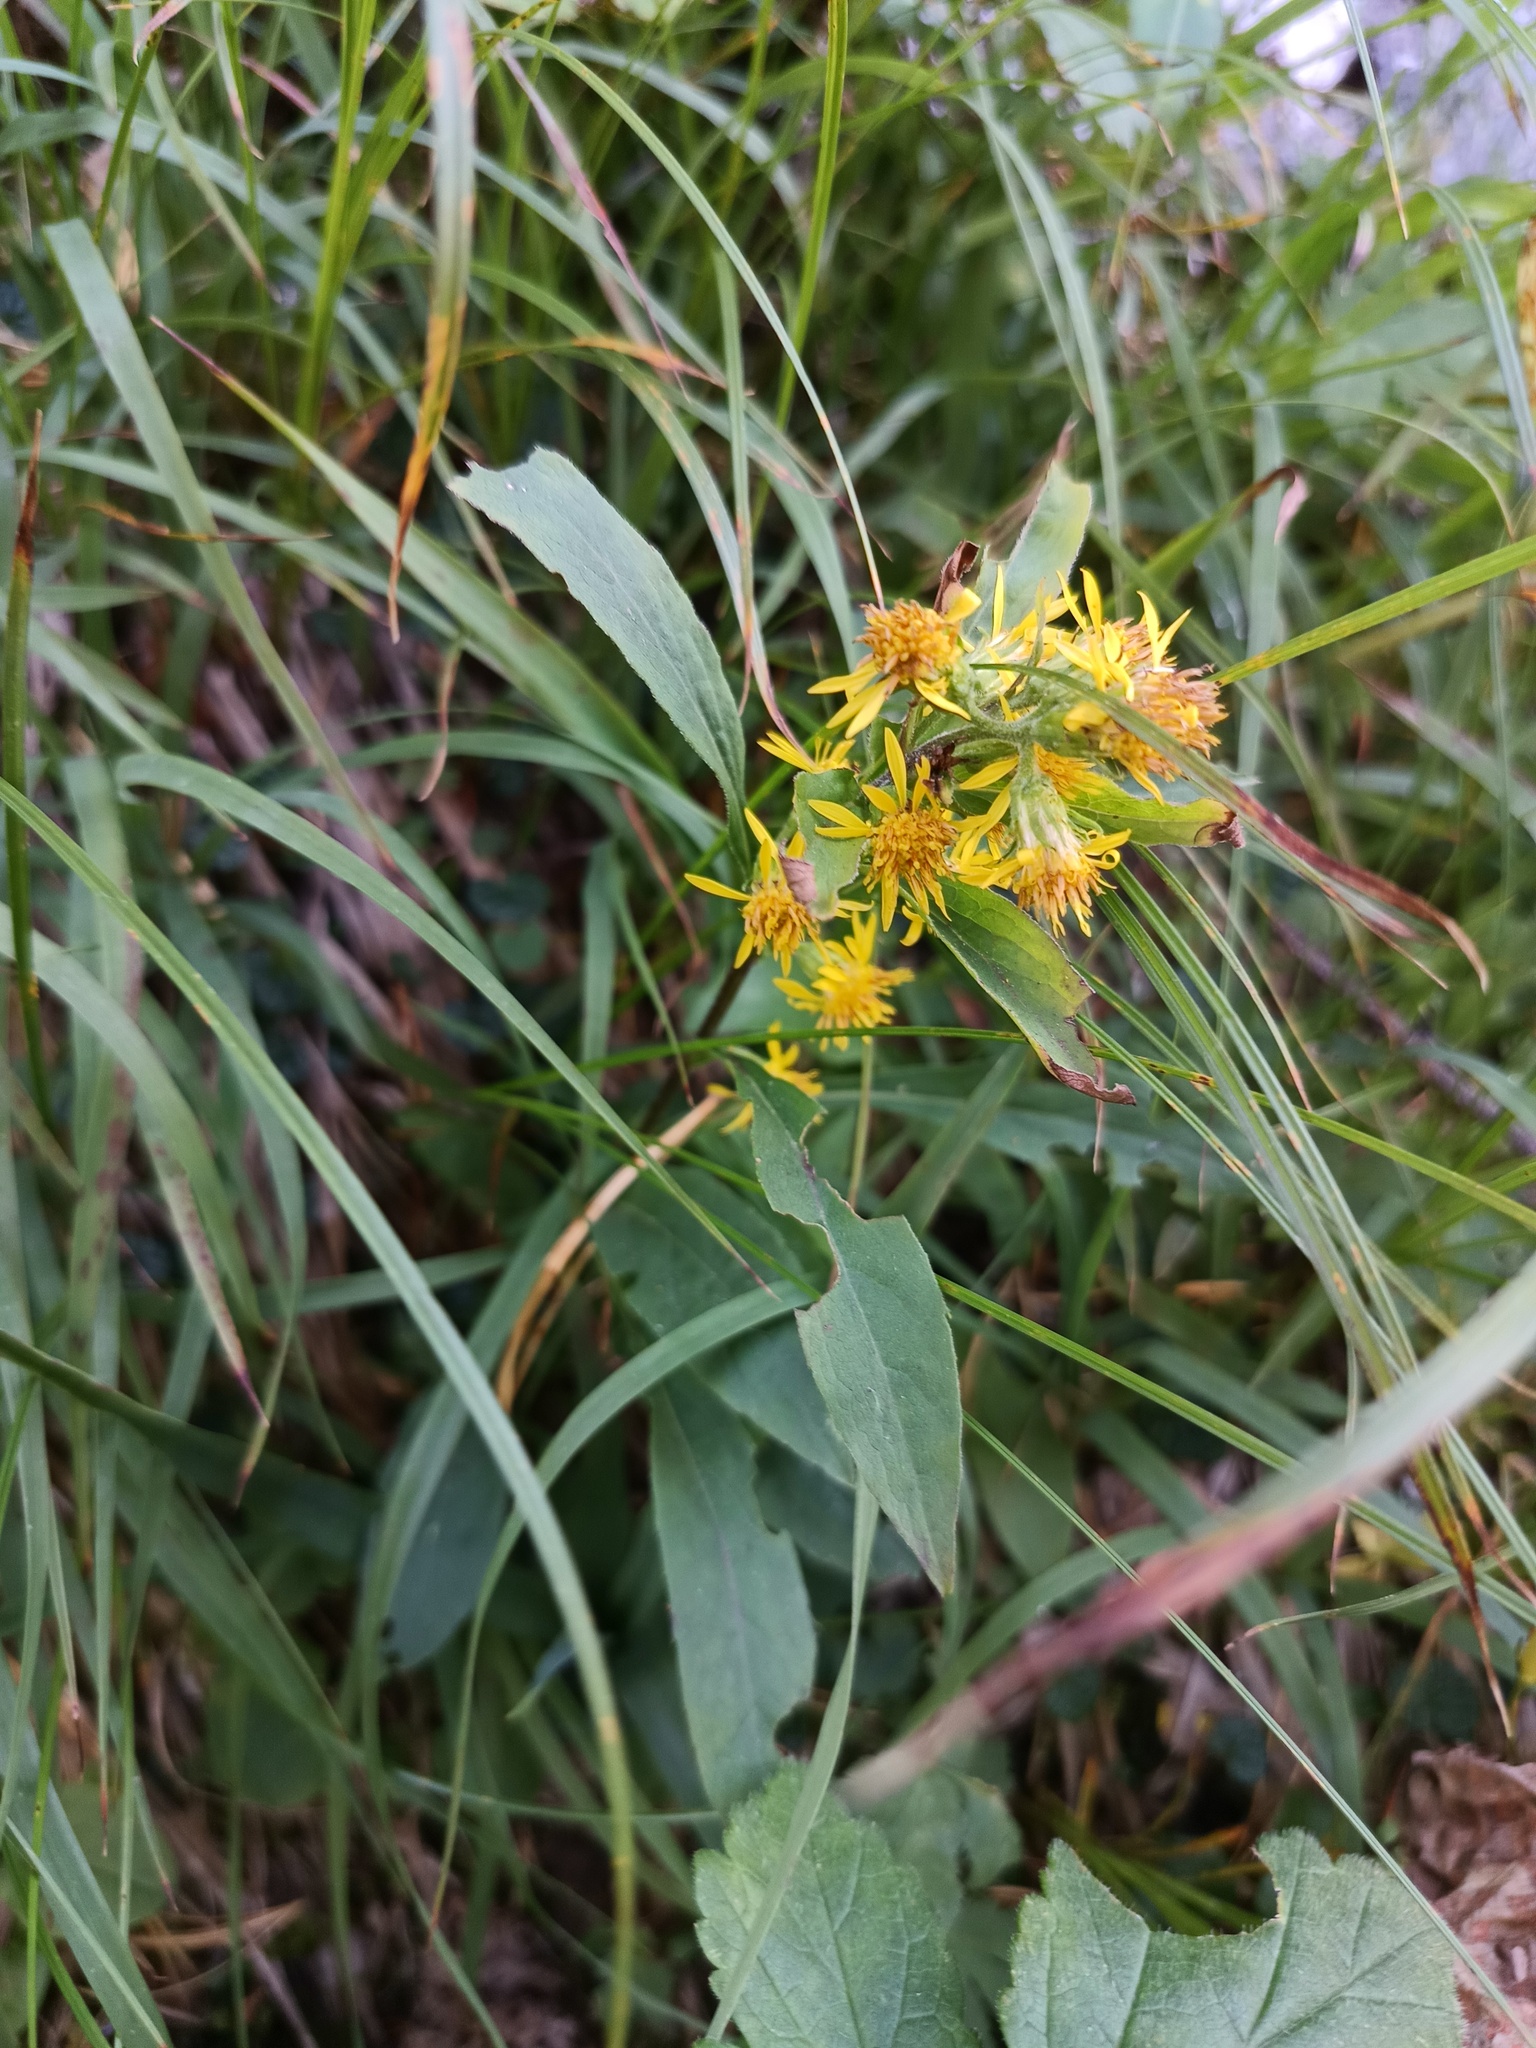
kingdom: Plantae
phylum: Tracheophyta
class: Magnoliopsida
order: Asterales
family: Asteraceae
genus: Solidago
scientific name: Solidago virgaurea
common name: Goldenrod
